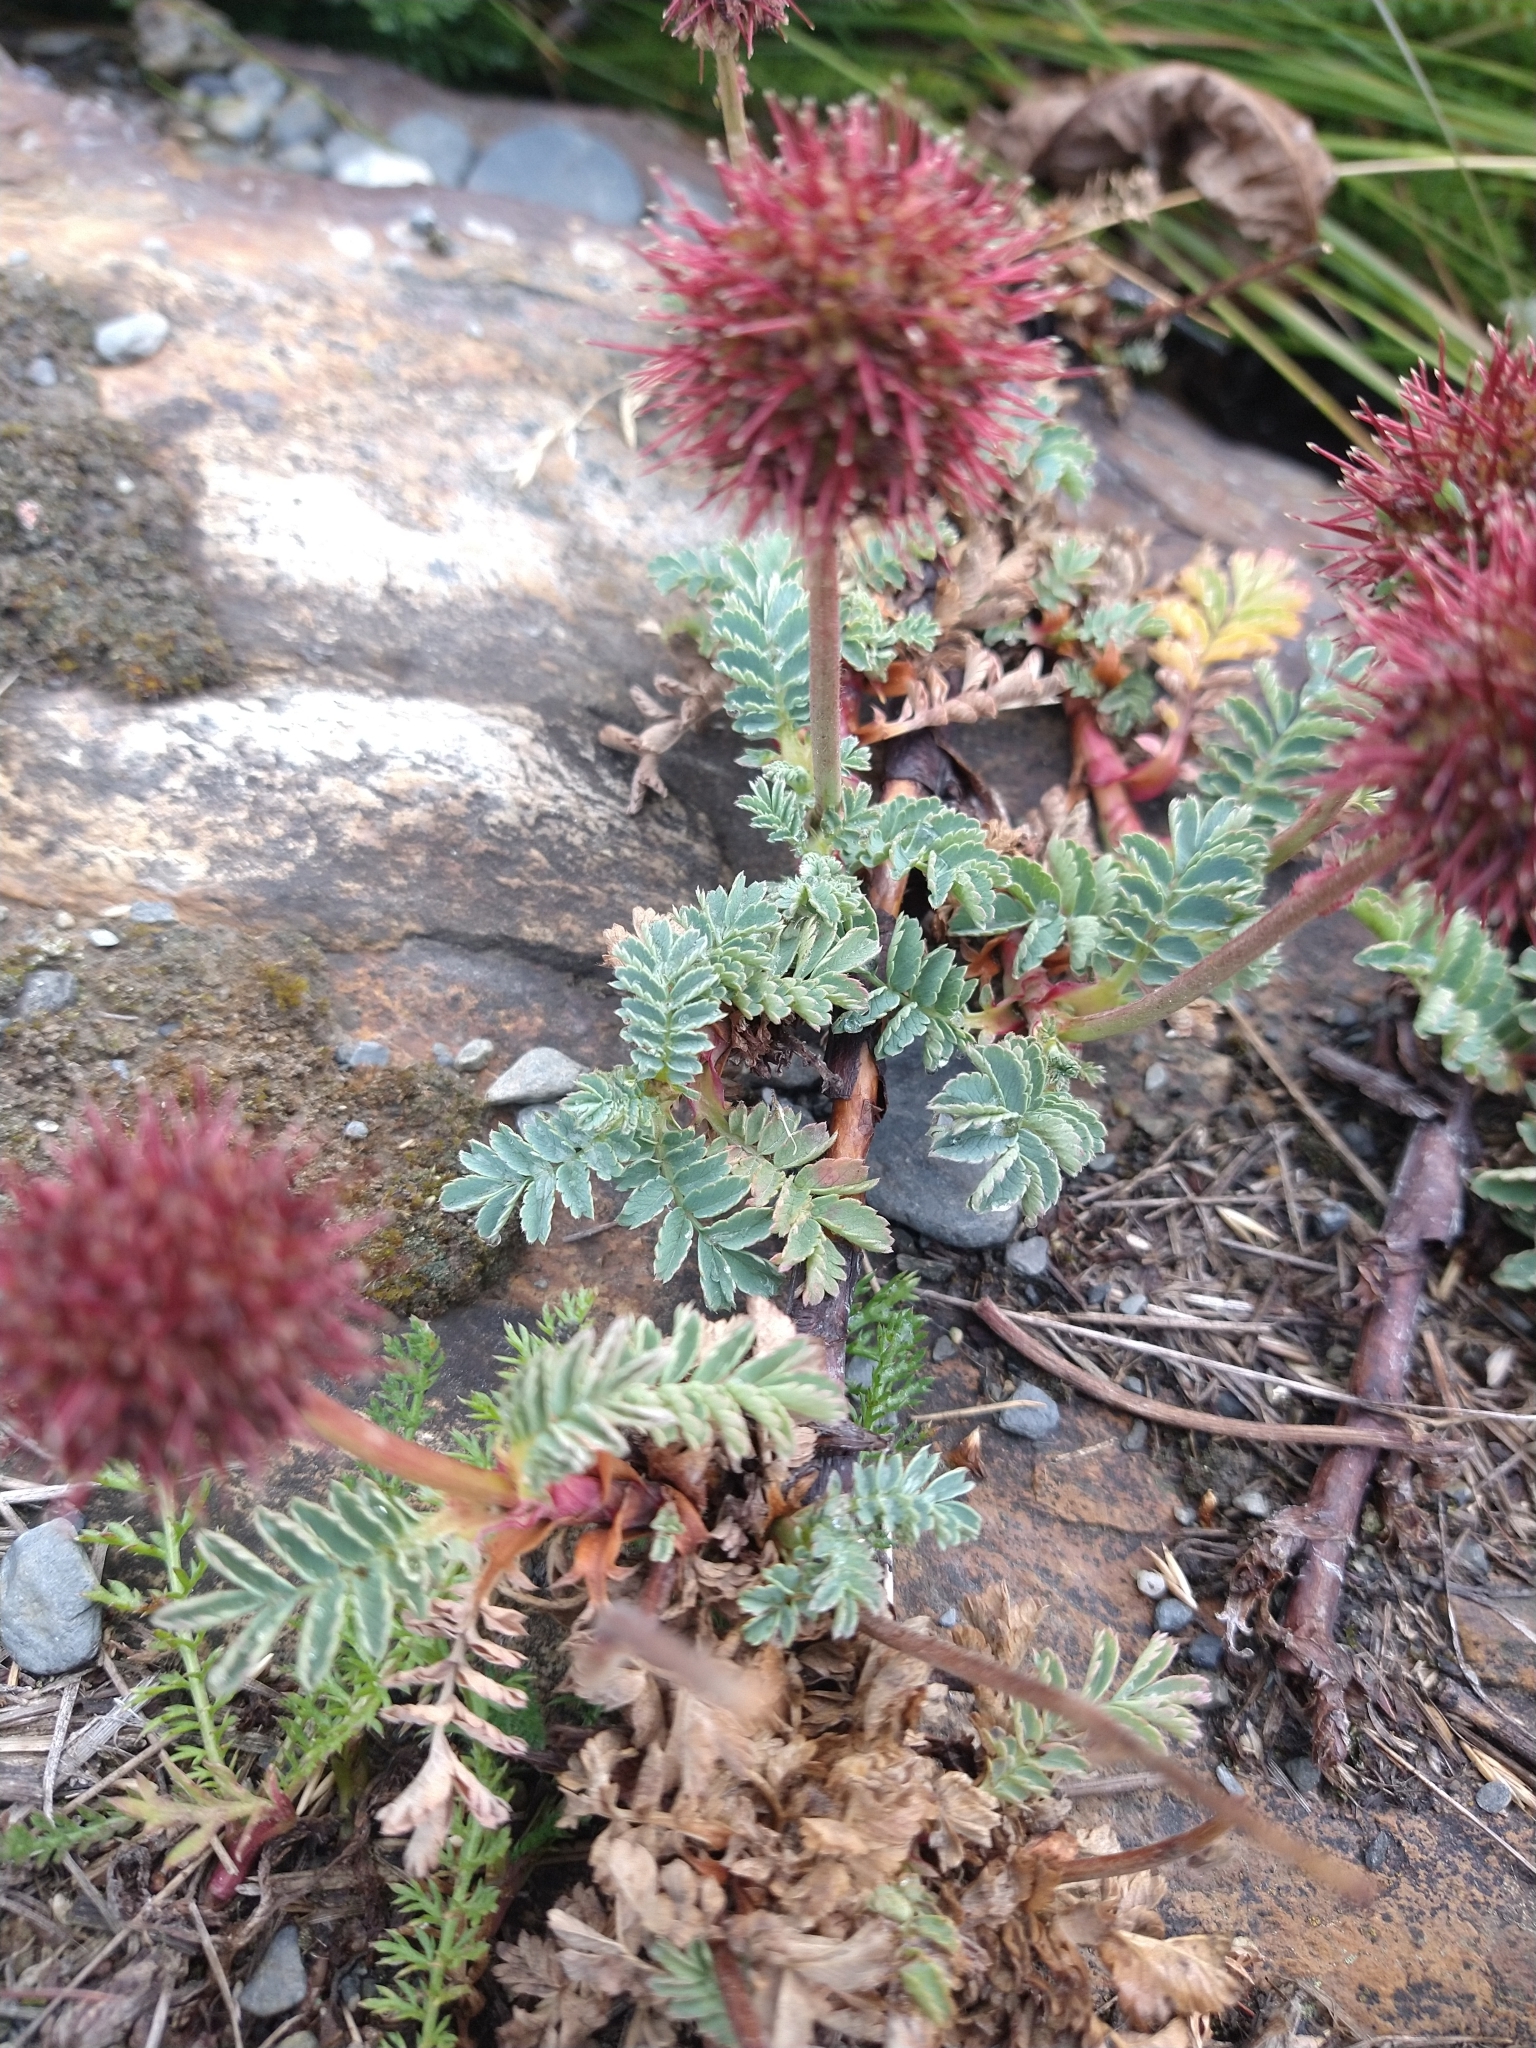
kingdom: Plantae
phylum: Tracheophyta
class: Magnoliopsida
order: Rosales
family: Rosaceae
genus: Acaena
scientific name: Acaena magellanica
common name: New zealand burr
